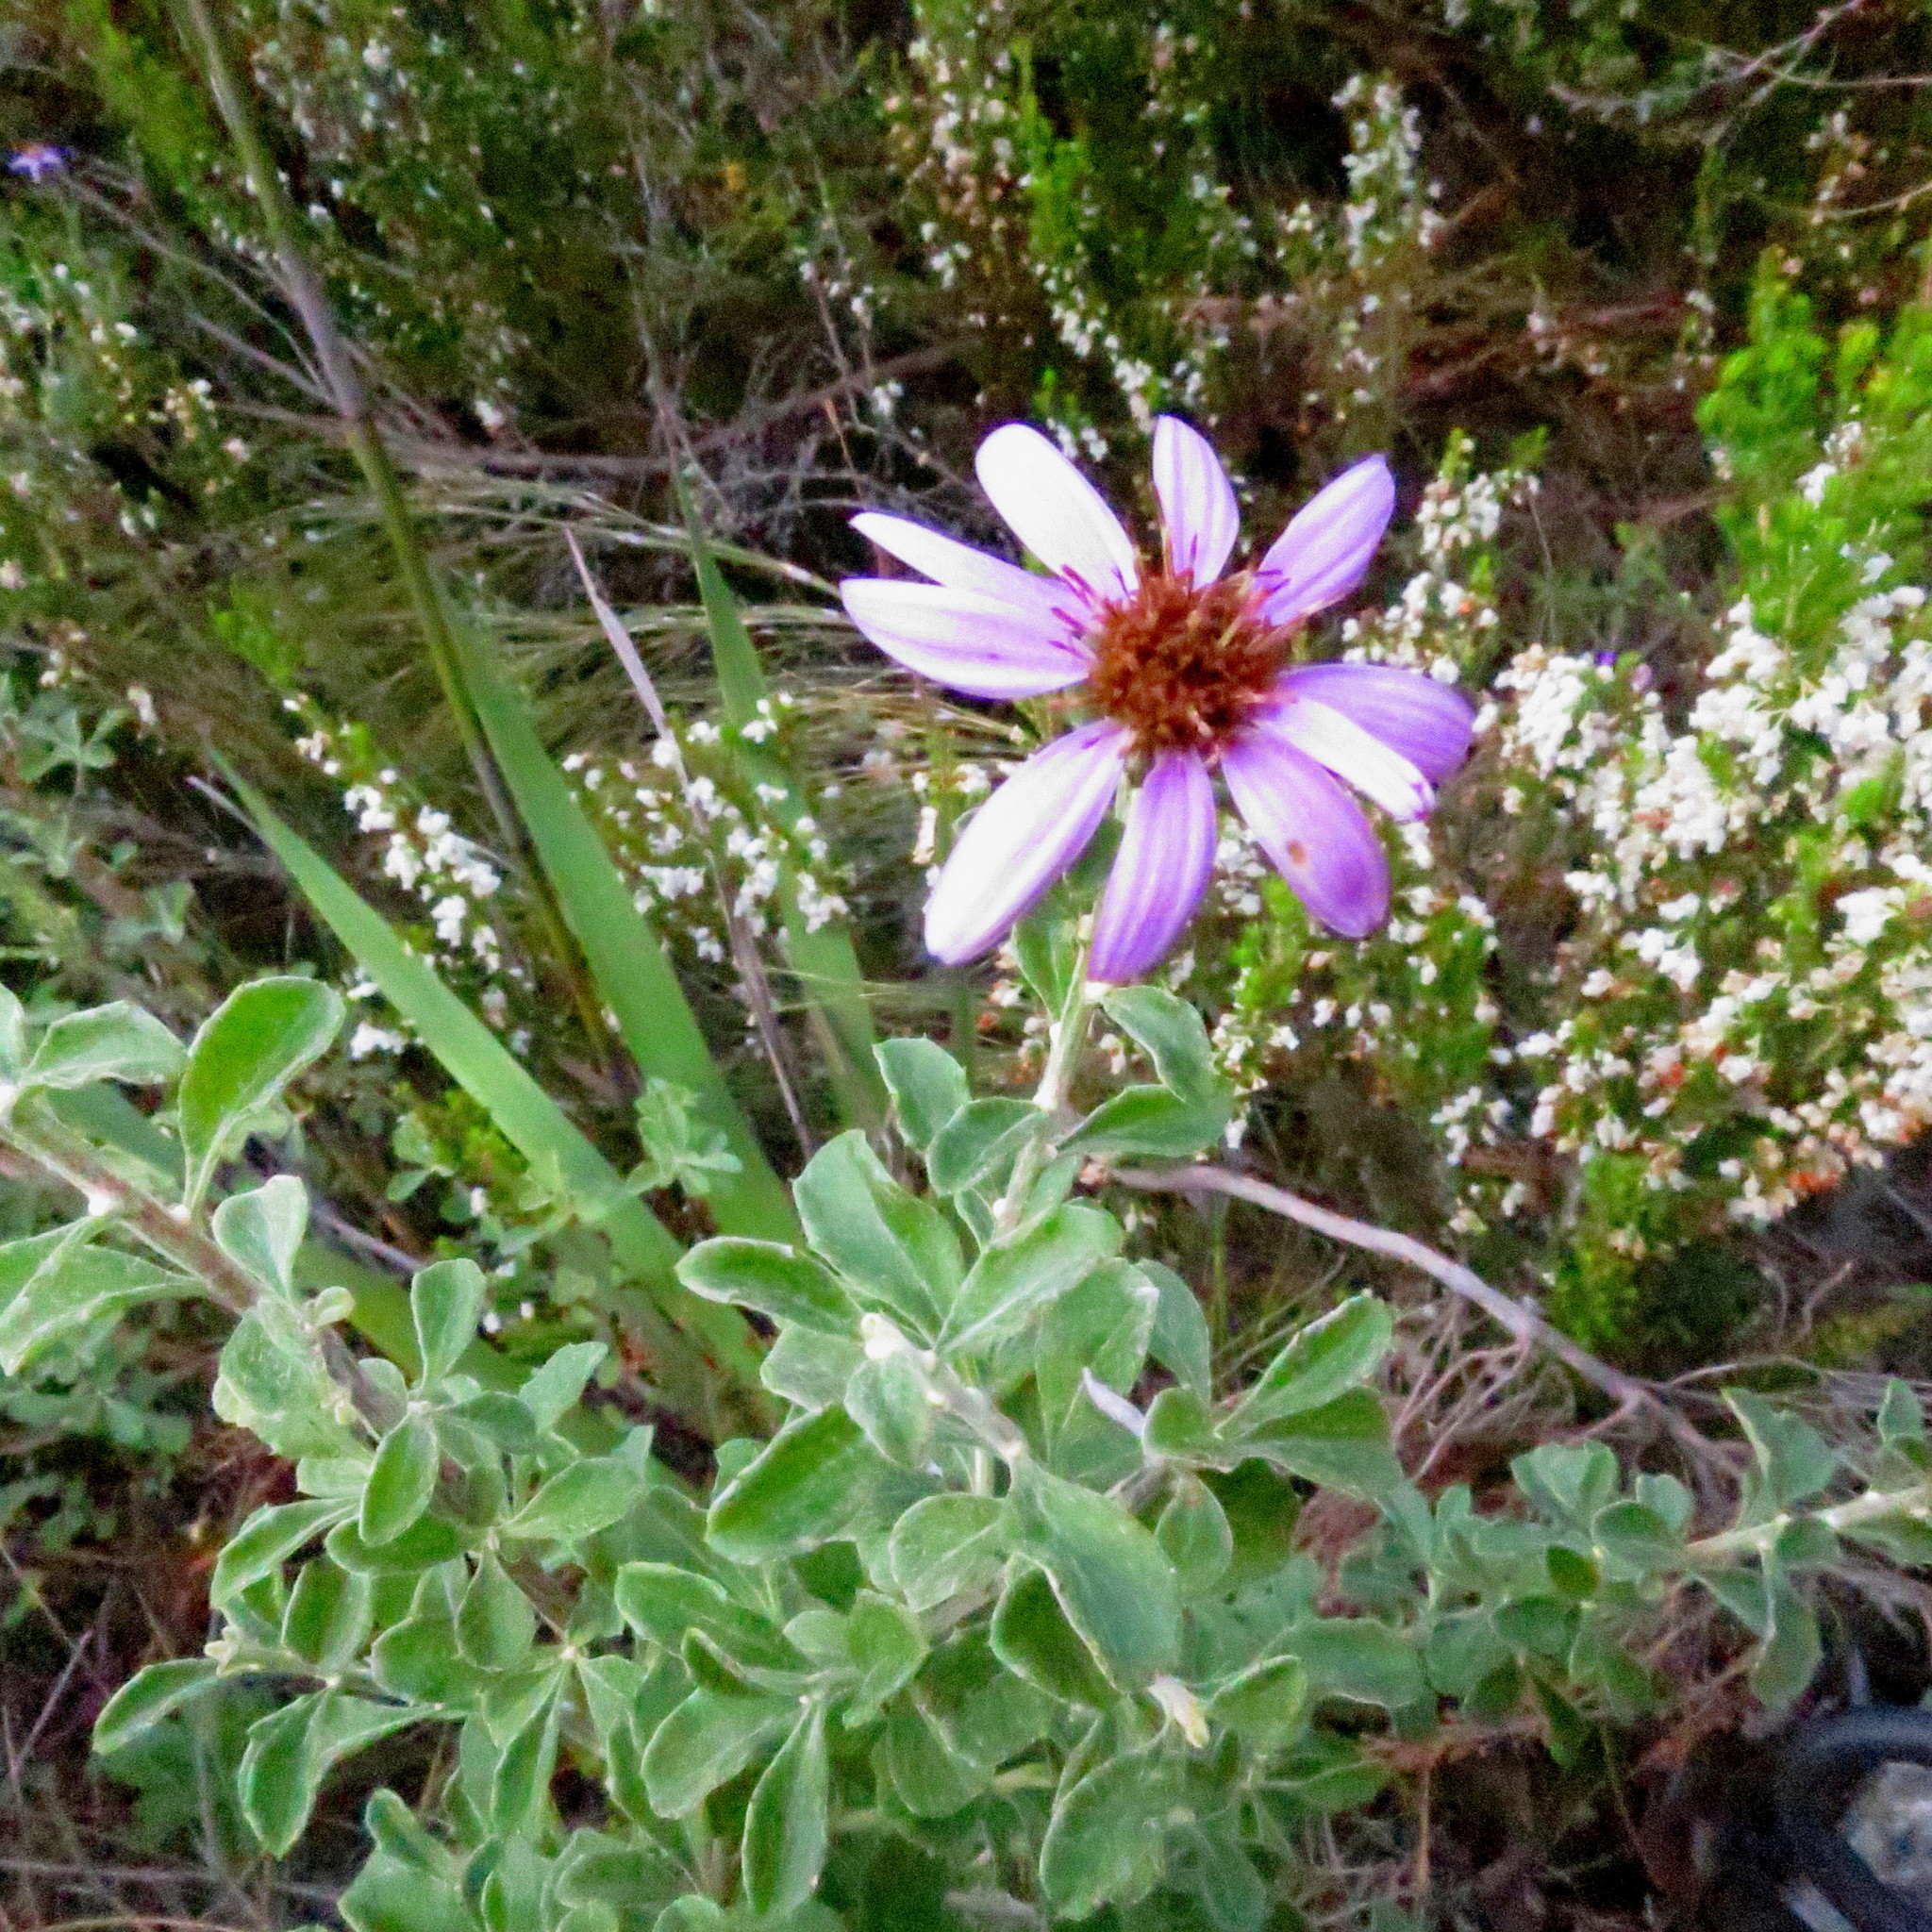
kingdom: Plantae
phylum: Tracheophyta
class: Magnoliopsida
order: Asterales
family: Asteraceae
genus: Printzia
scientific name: Printzia polifolia
